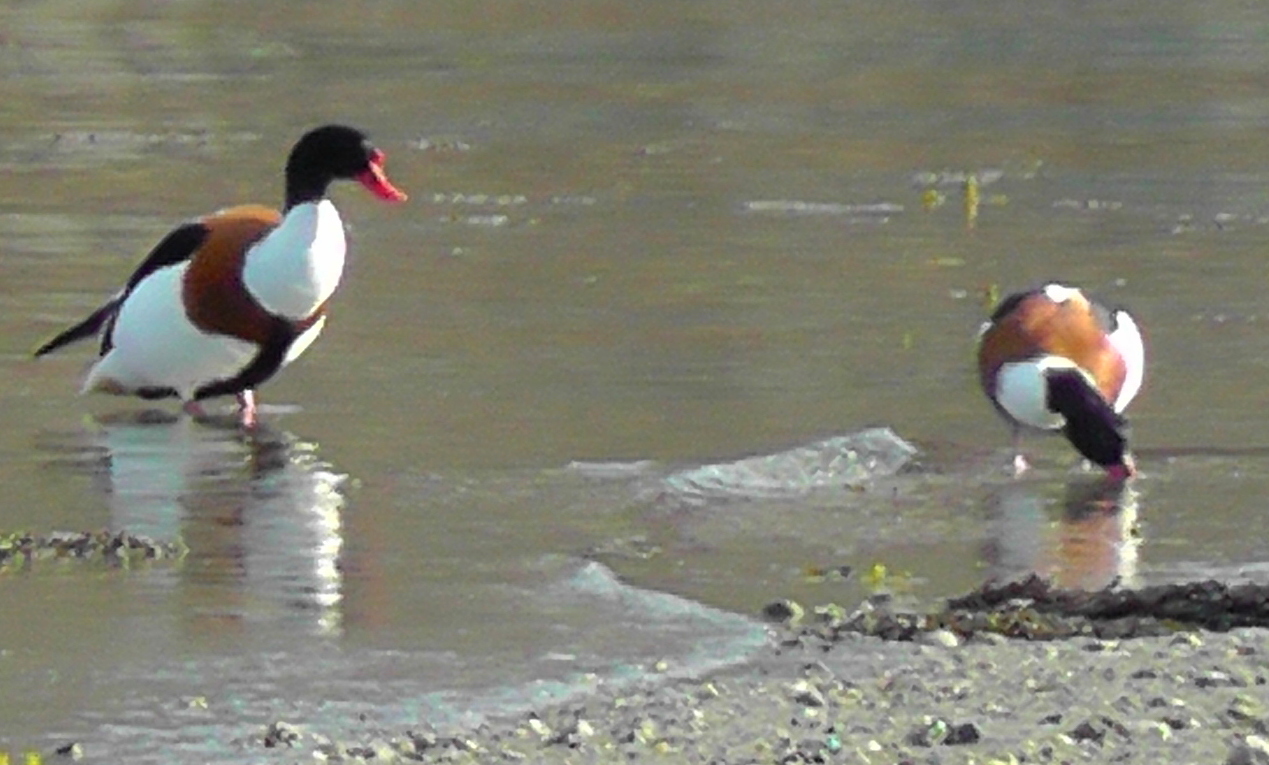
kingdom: Animalia
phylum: Chordata
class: Aves
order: Anseriformes
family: Anatidae
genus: Tadorna
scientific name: Tadorna tadorna
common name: Common shelduck
